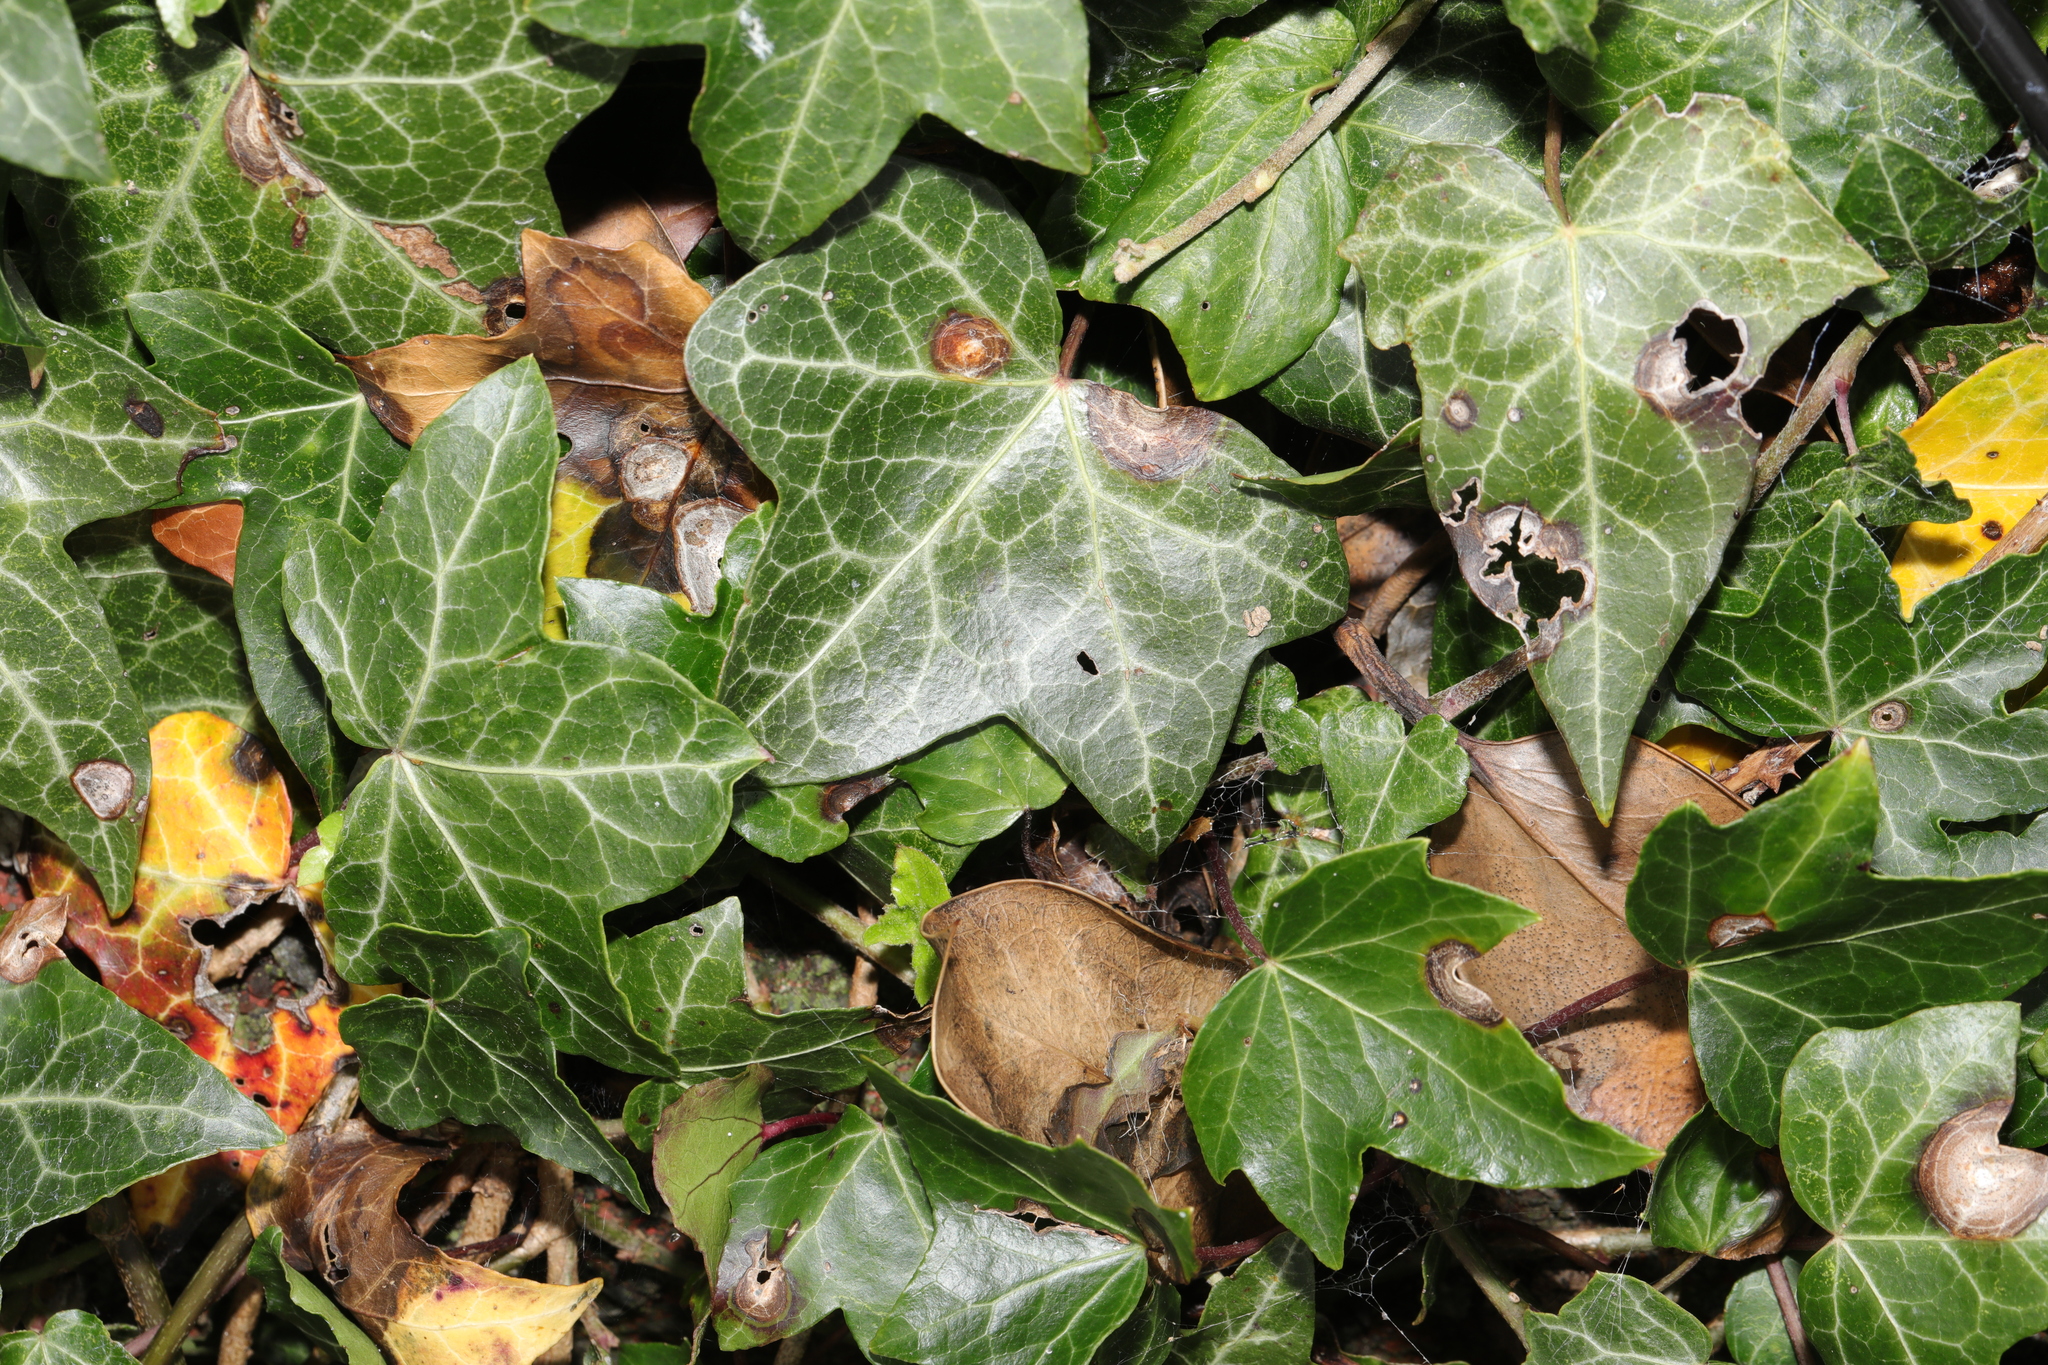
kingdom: Plantae
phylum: Tracheophyta
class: Magnoliopsida
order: Apiales
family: Araliaceae
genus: Hedera
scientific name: Hedera helix
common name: Ivy
